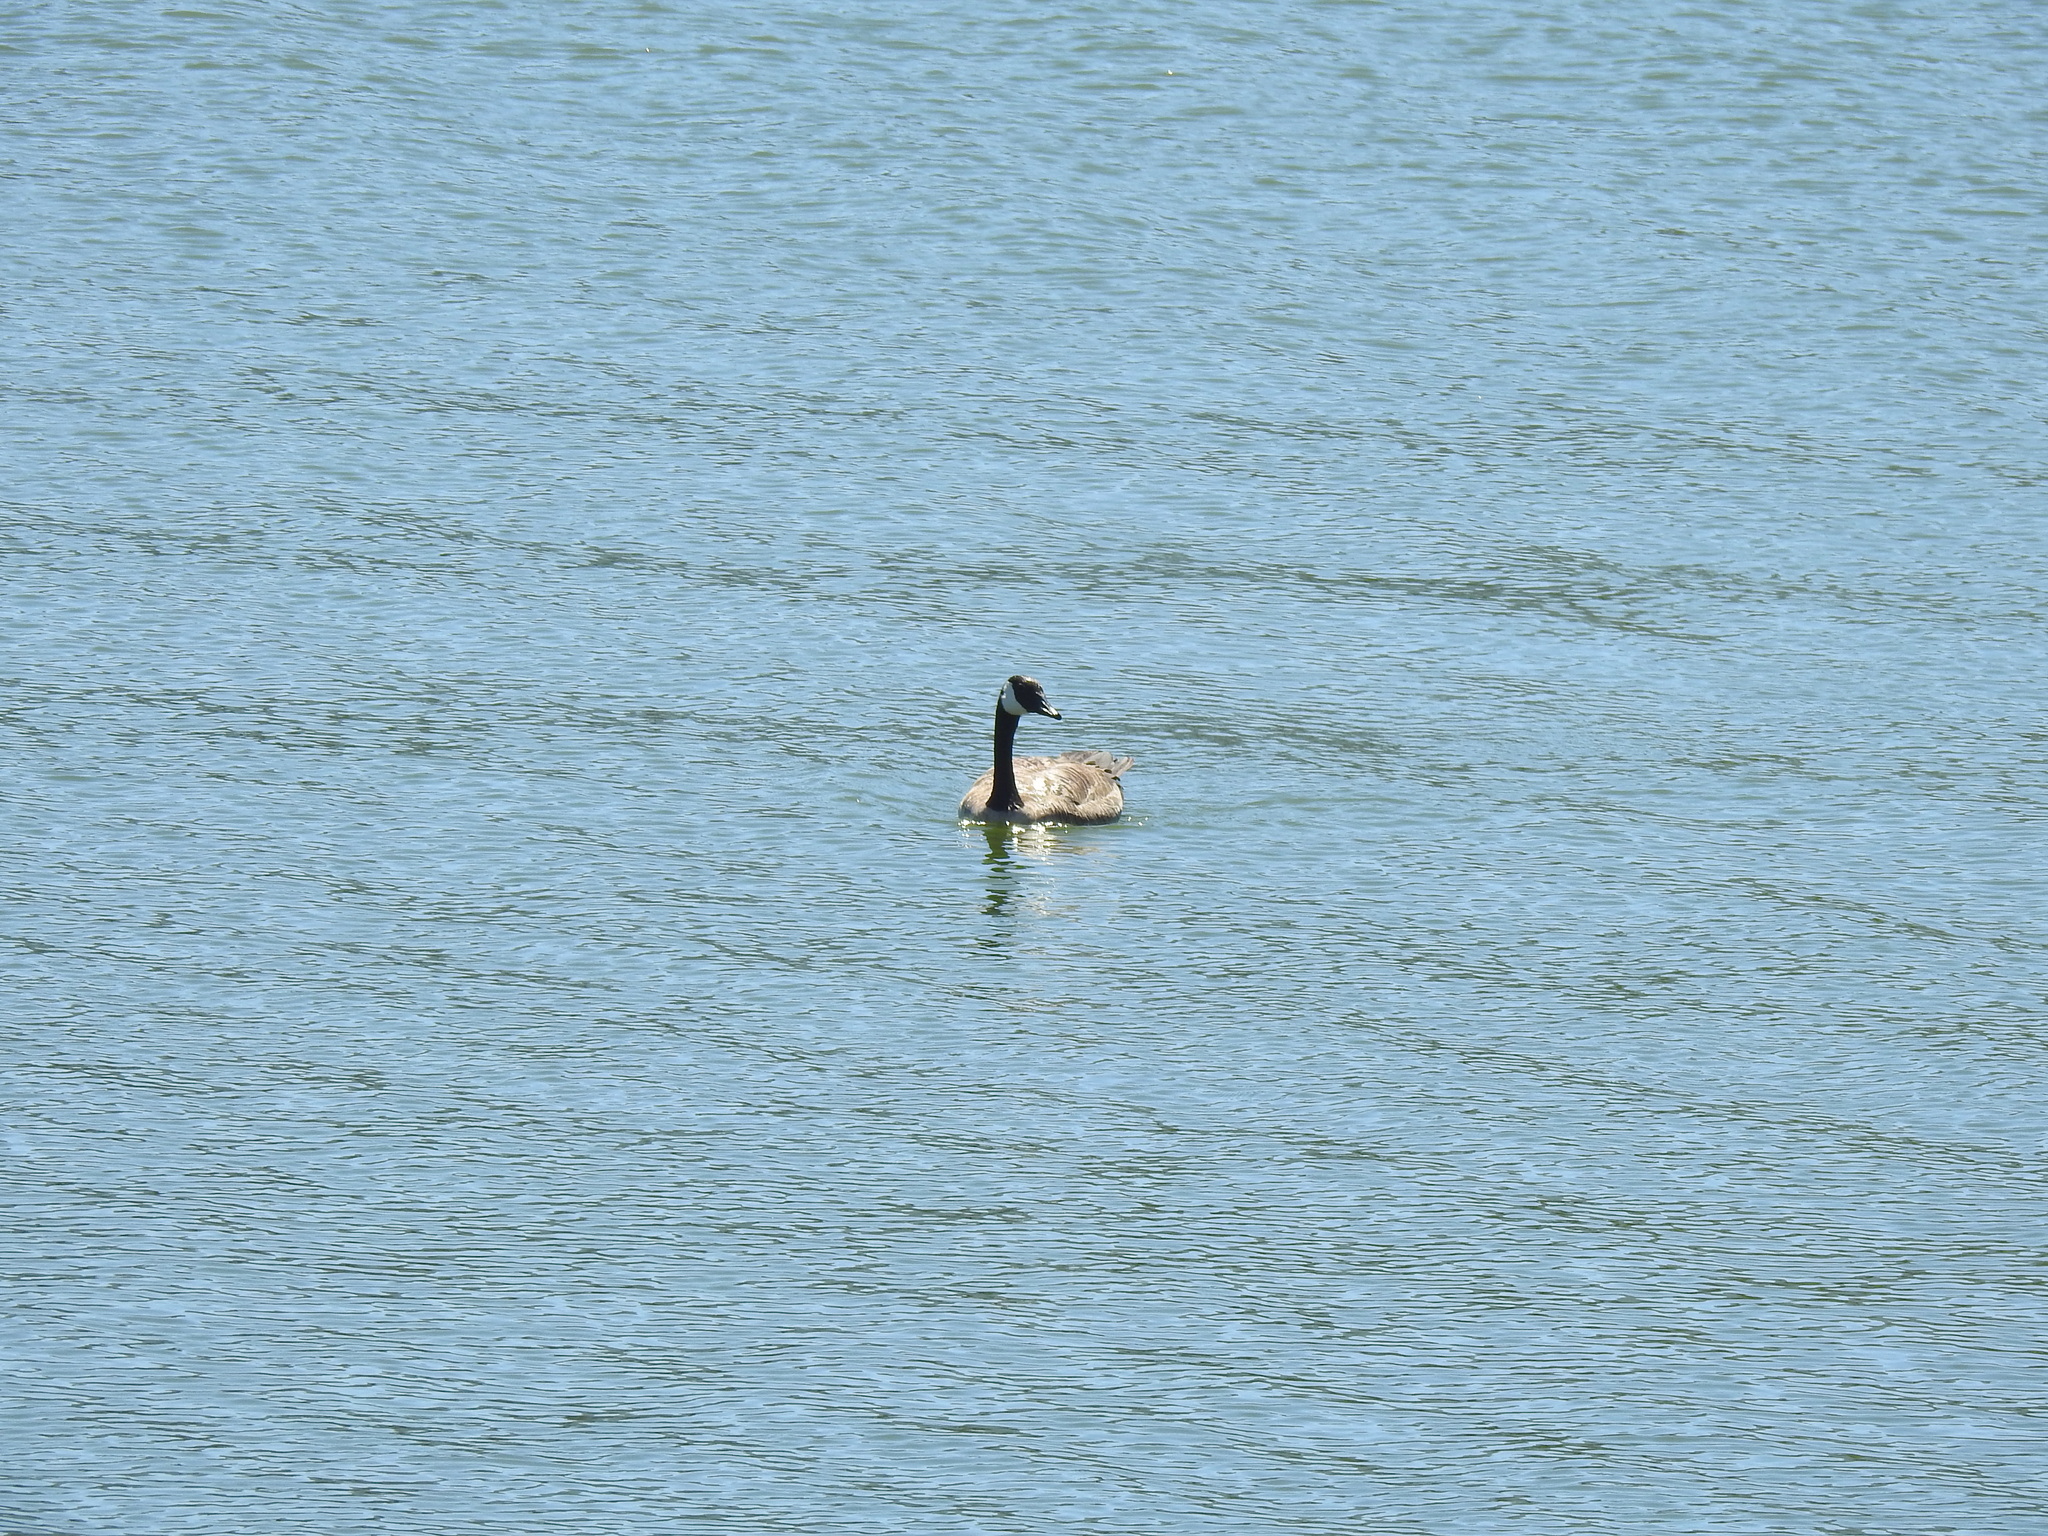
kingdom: Animalia
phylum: Chordata
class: Aves
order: Anseriformes
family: Anatidae
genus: Branta
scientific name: Branta canadensis
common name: Canada goose
